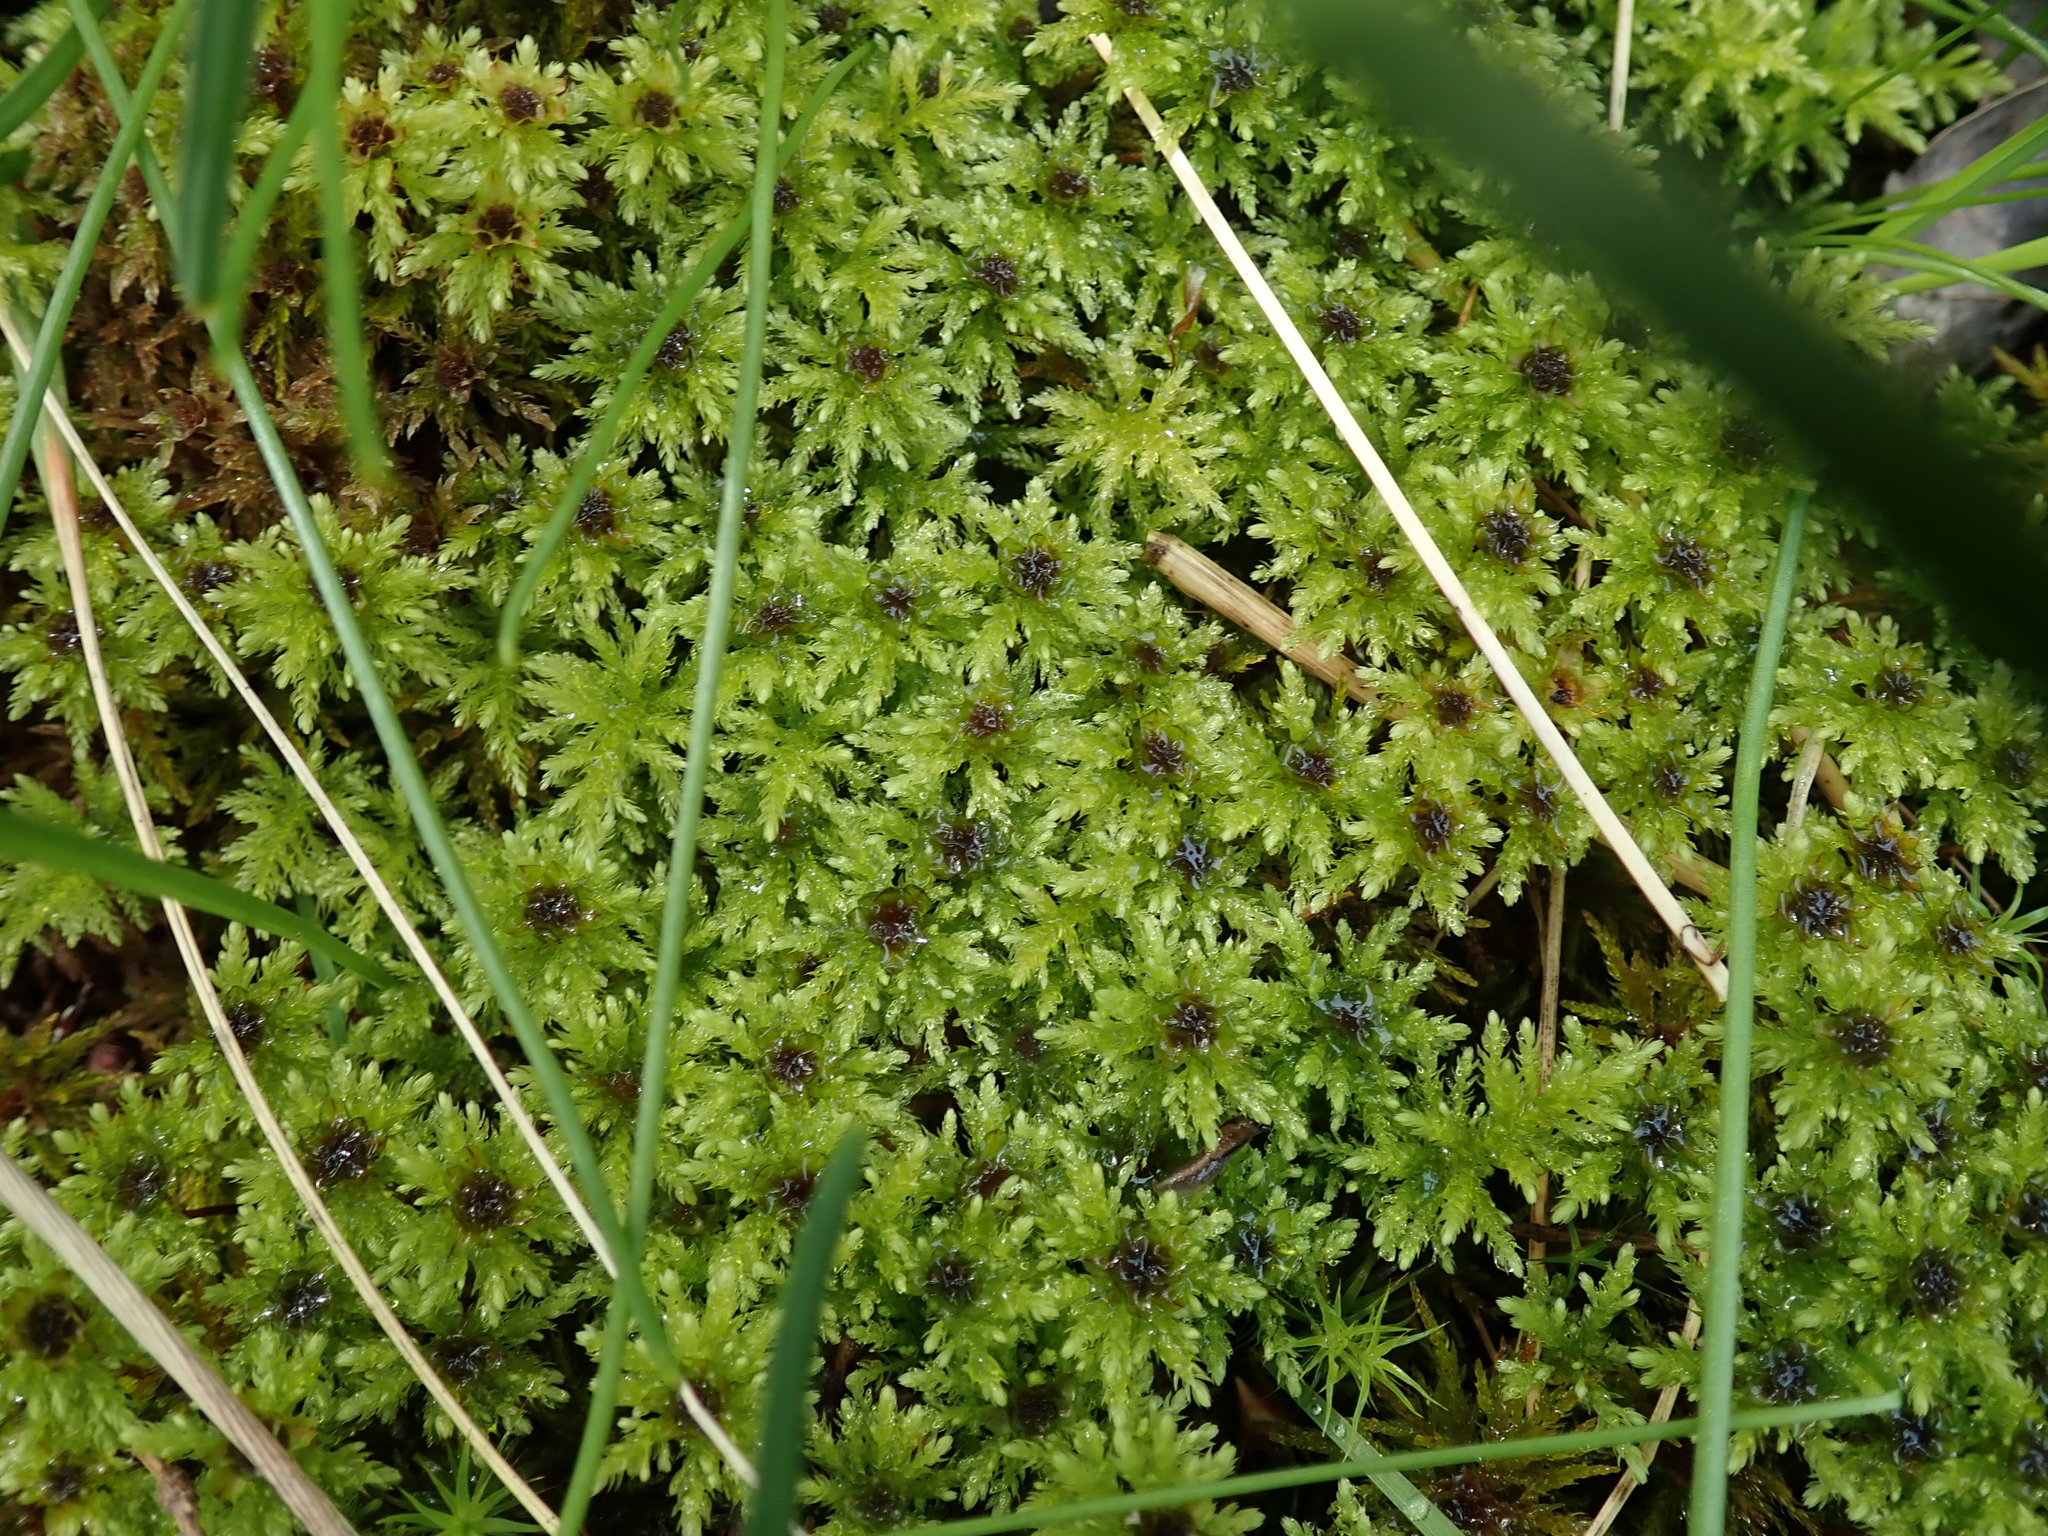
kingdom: Plantae
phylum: Bryophyta
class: Bryopsida
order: Bryales
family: Mniaceae
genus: Leucolepis
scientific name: Leucolepis acanthoneura
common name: Leucolepis umbrella moss
